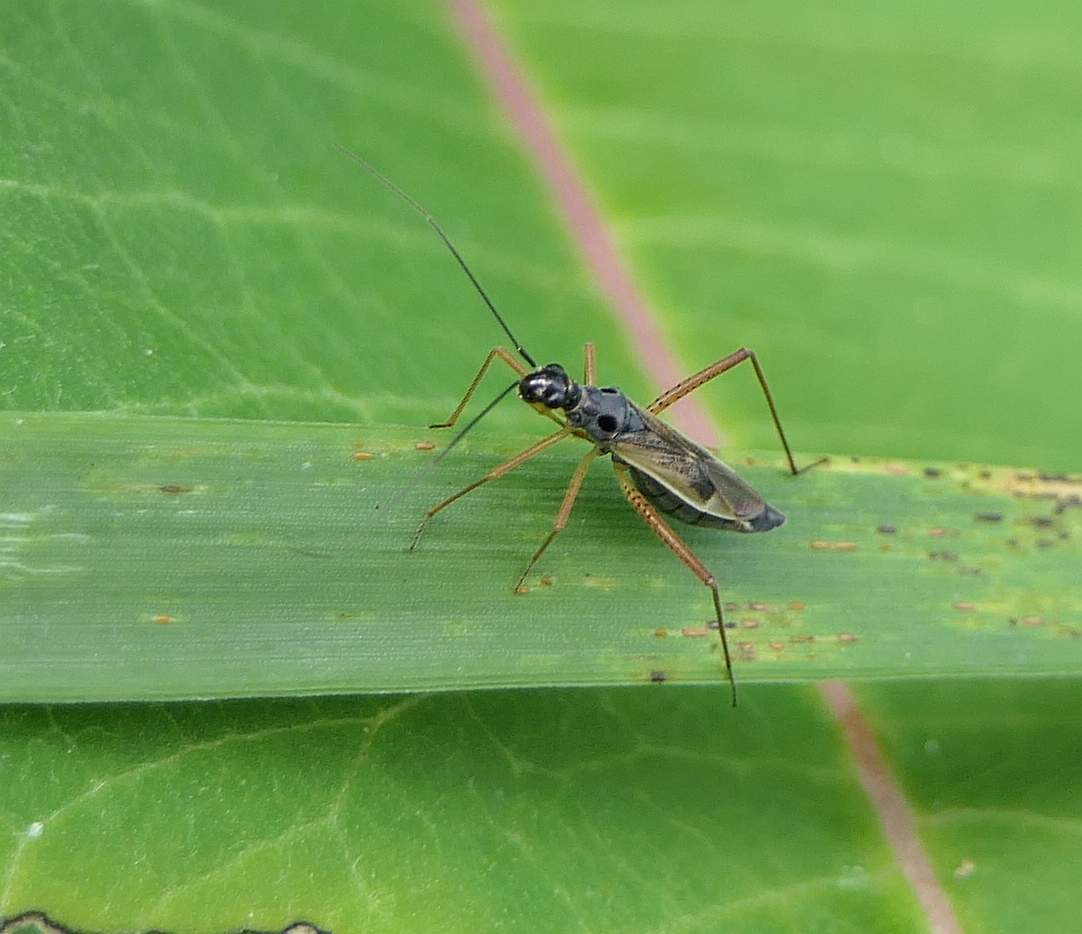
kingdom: Animalia
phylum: Arthropoda
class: Insecta
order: Hemiptera
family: Miridae
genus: Collaria
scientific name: Collaria meilleurii
